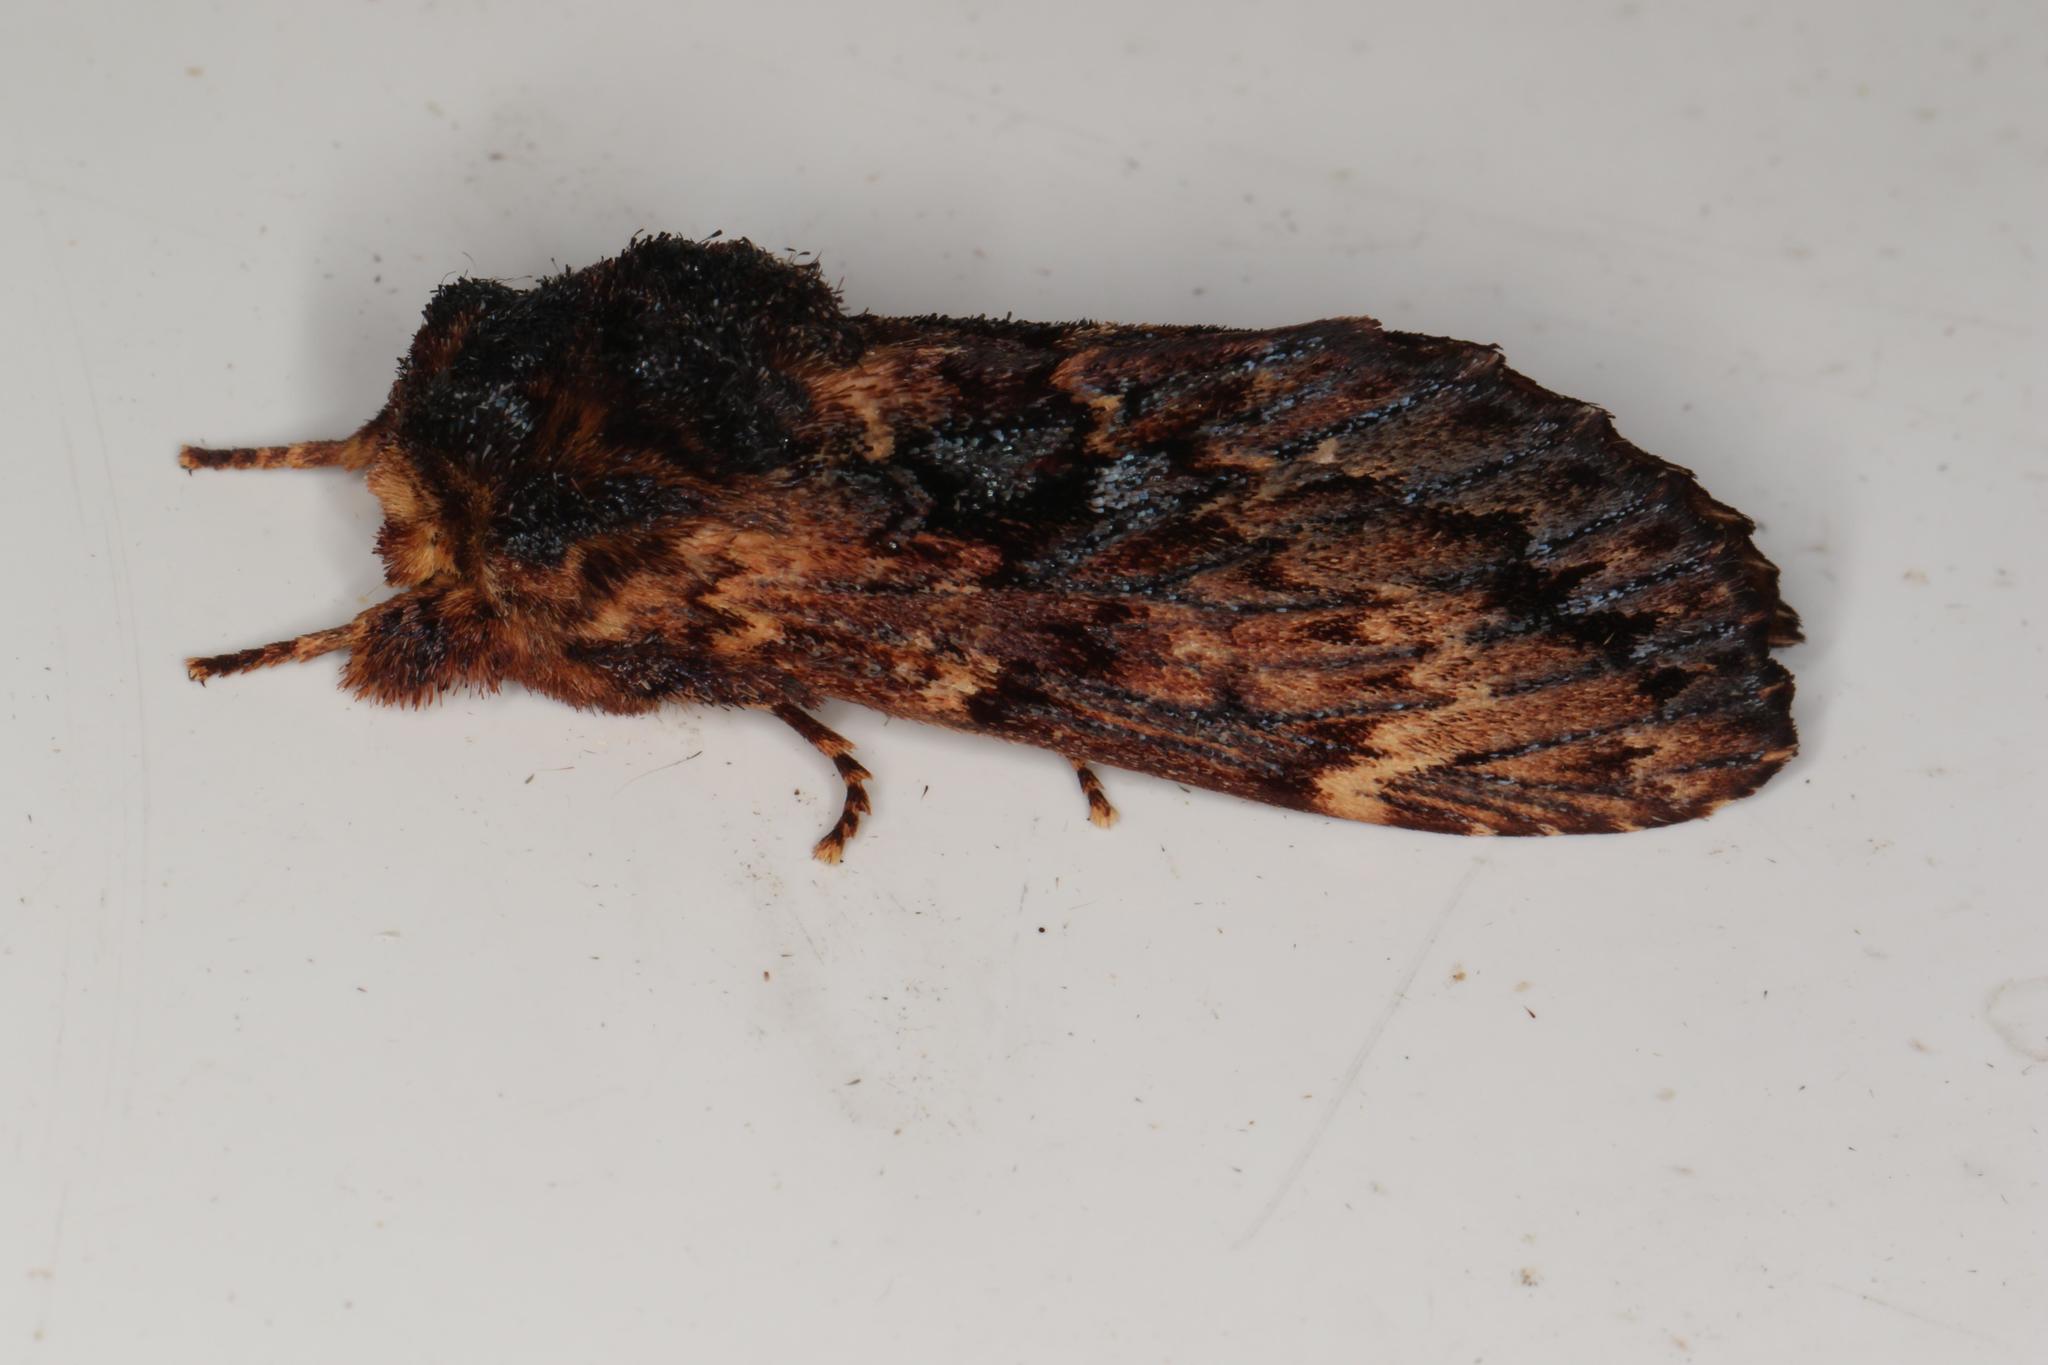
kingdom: Animalia
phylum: Arthropoda
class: Insecta
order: Lepidoptera
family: Notodontidae
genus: Sorama
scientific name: Sorama bicolor
